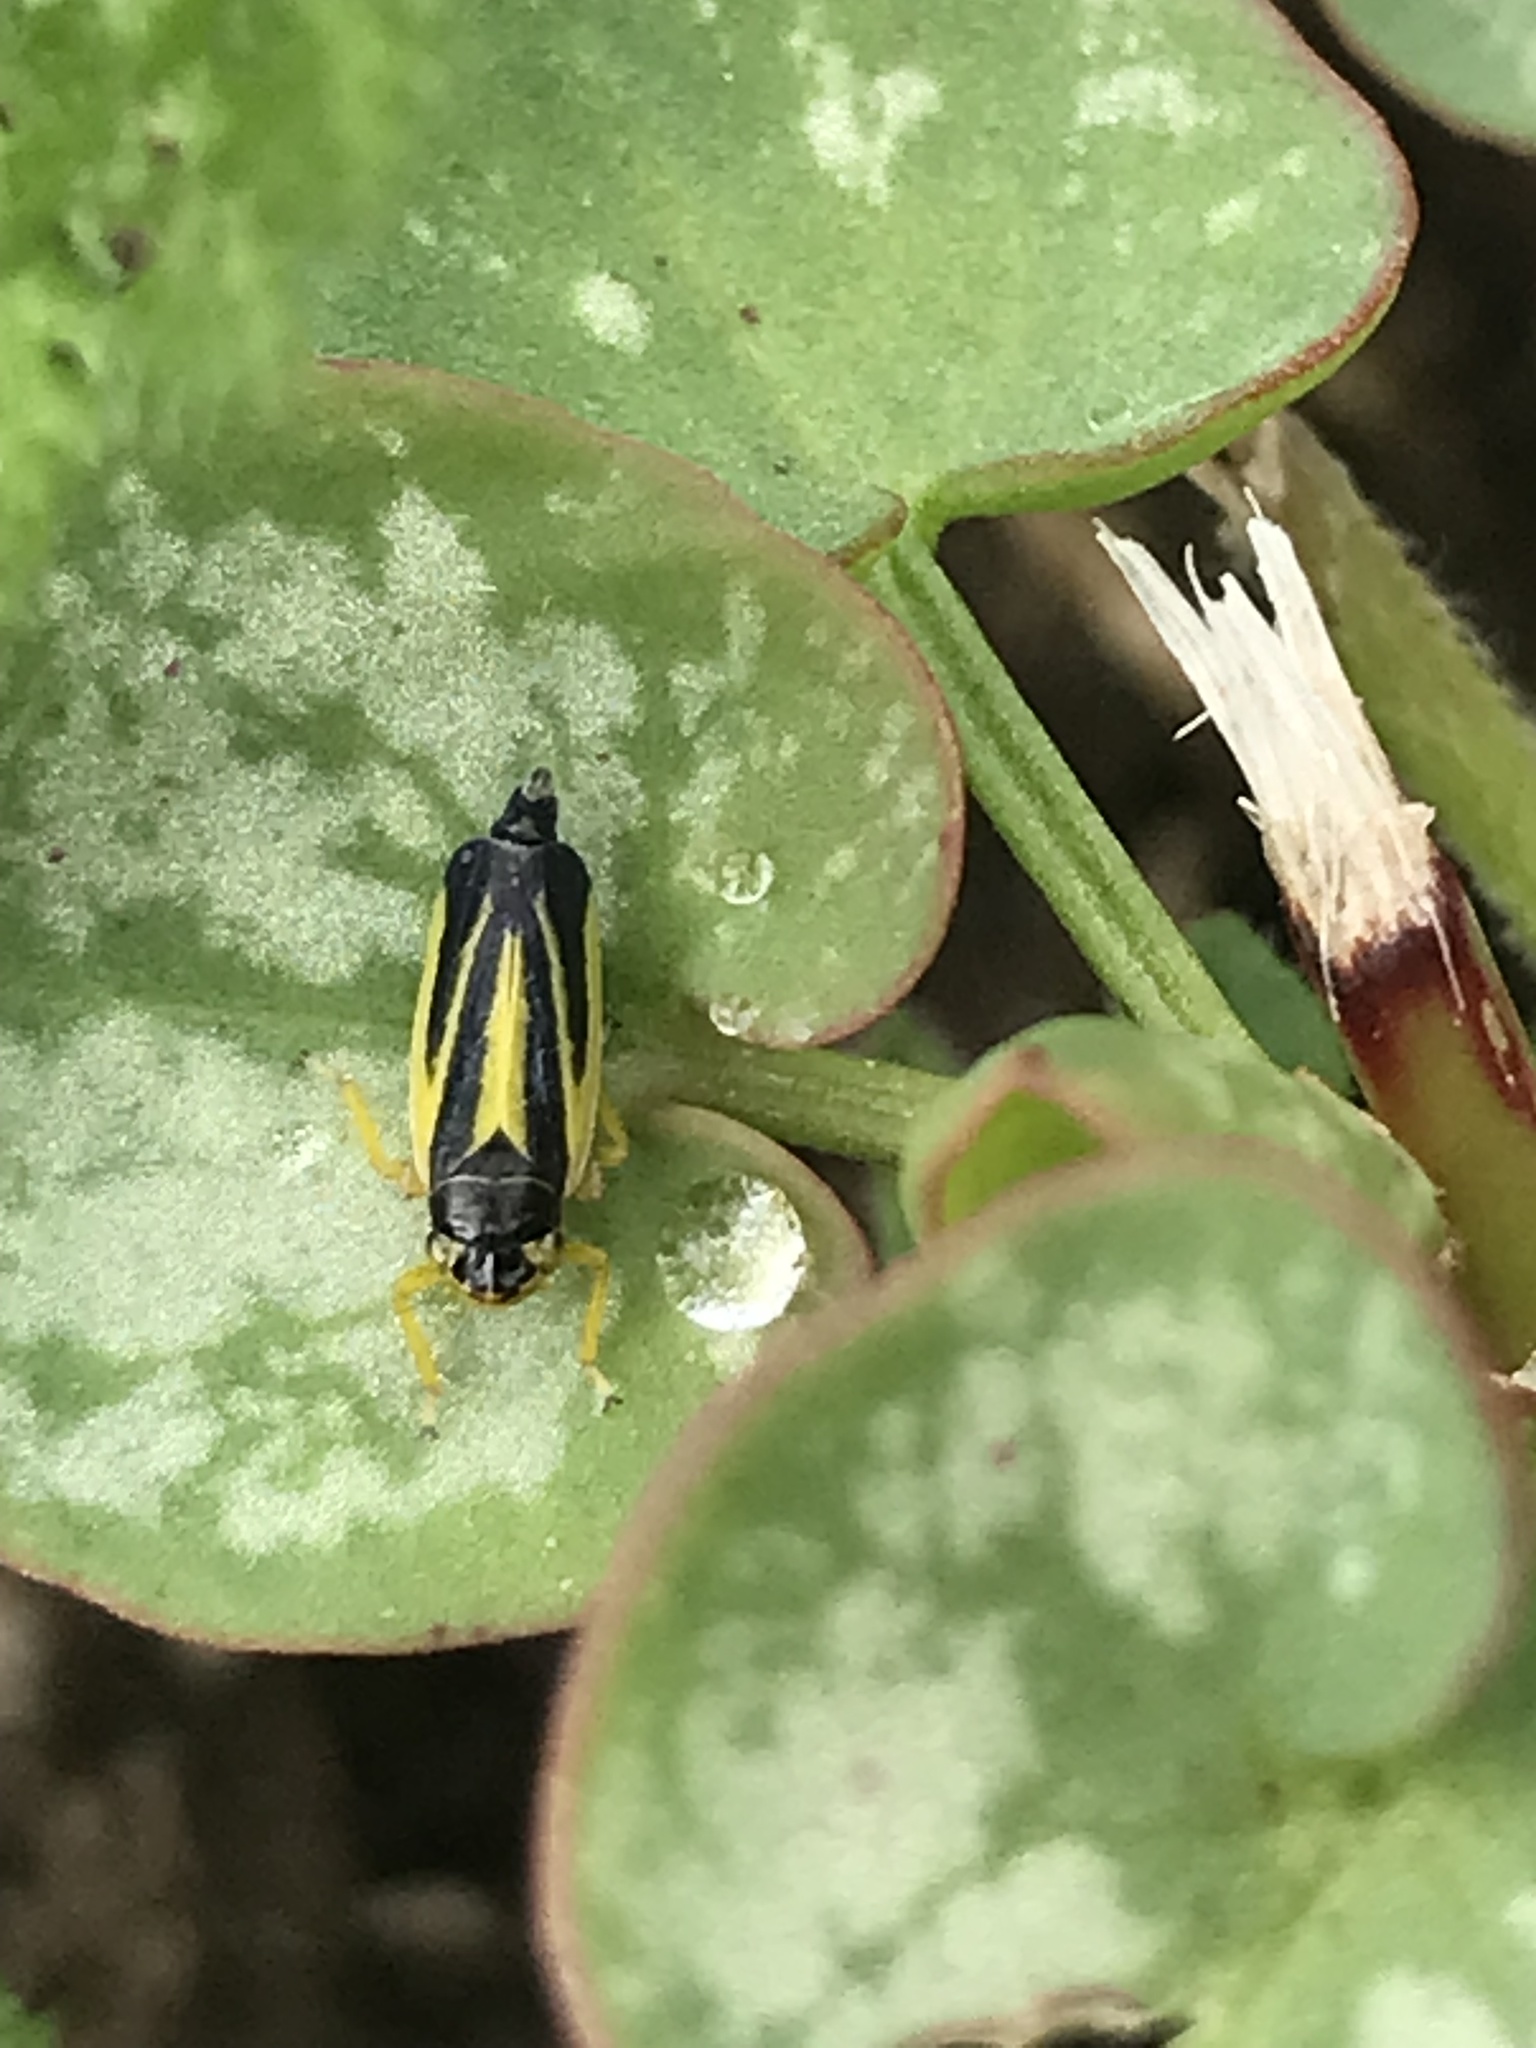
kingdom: Animalia
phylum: Arthropoda
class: Insecta
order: Hemiptera
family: Cicadellidae
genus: Evacanthus
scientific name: Evacanthus interruptus
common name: Leafhopper
